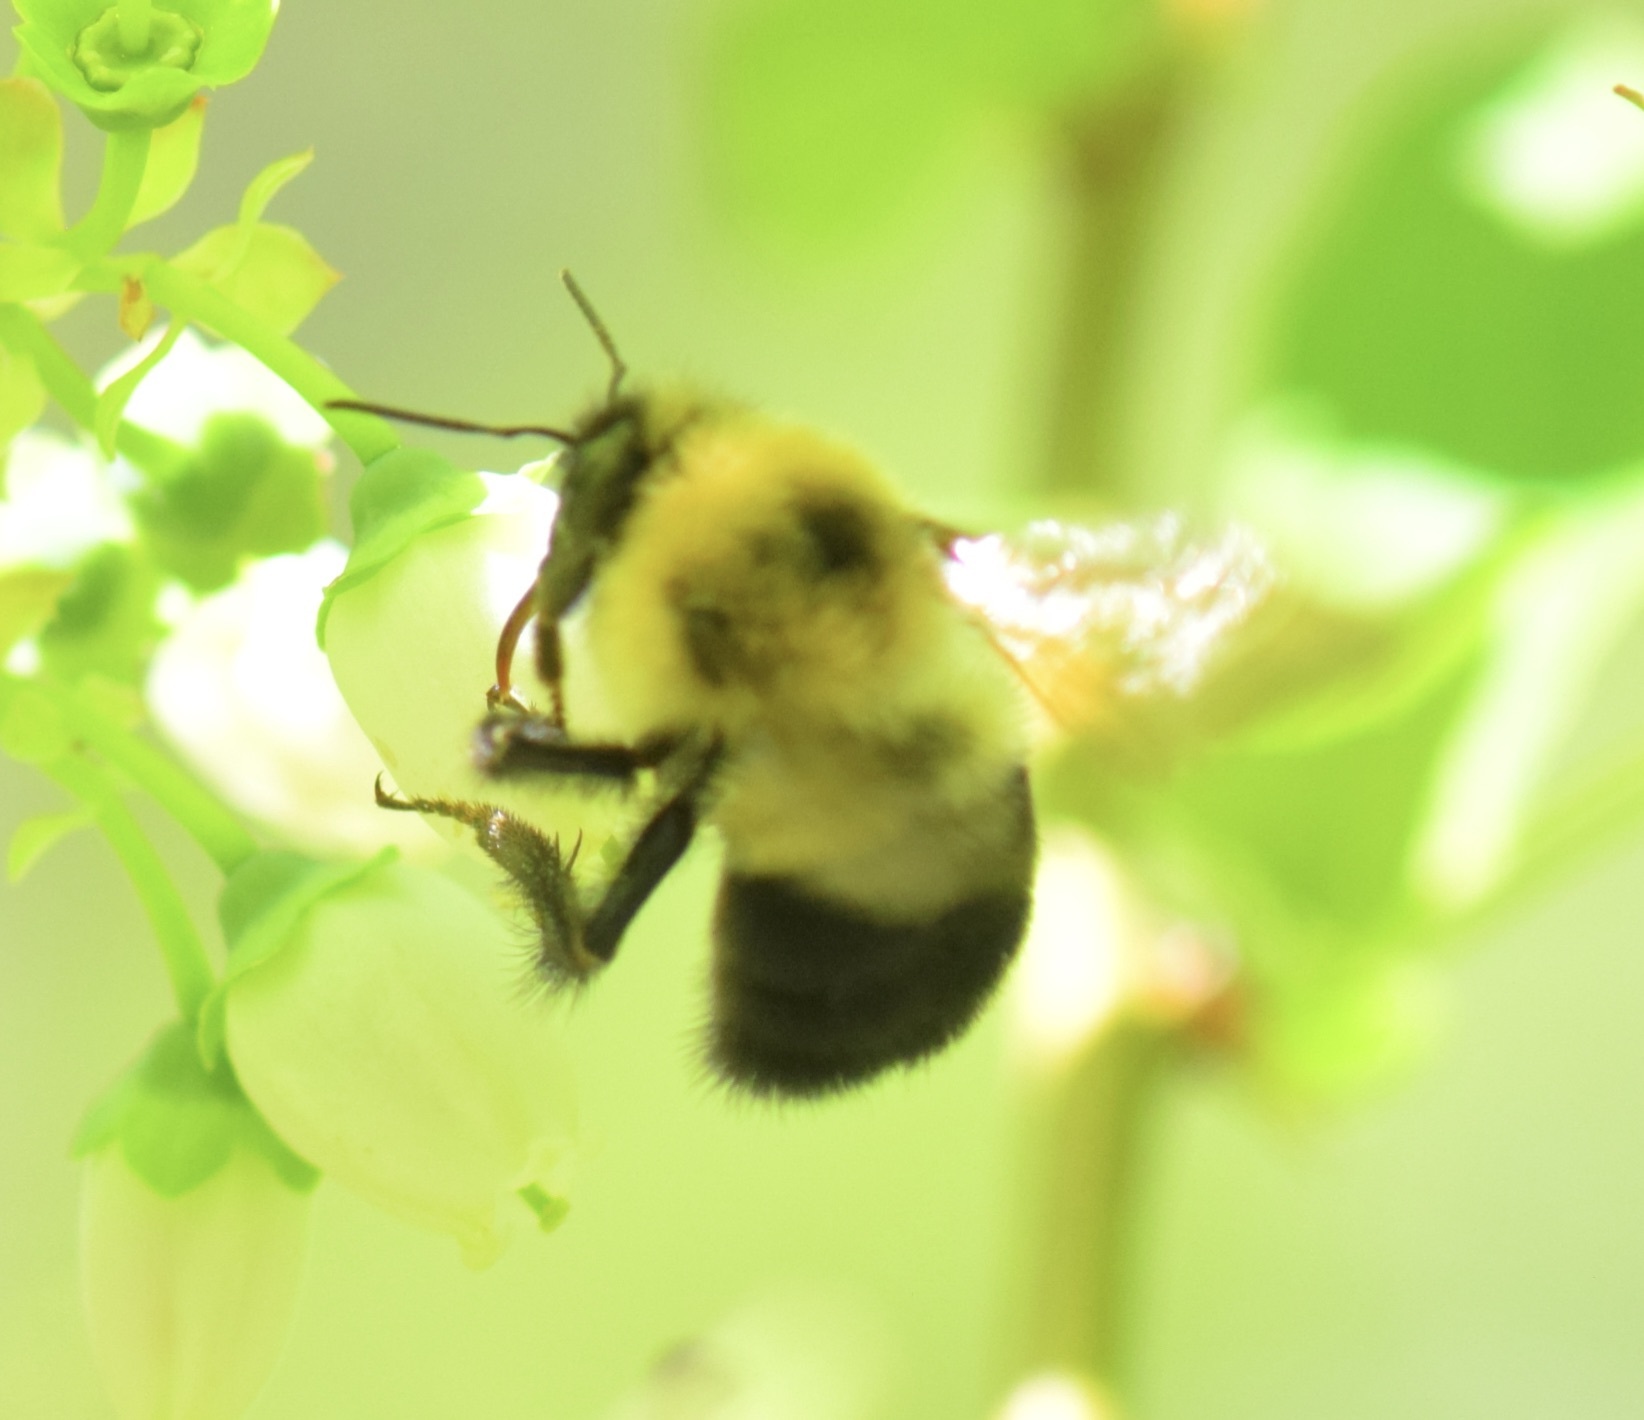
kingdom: Animalia
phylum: Arthropoda
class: Insecta
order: Hymenoptera
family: Apidae
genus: Bombus
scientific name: Bombus bimaculatus
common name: Two-spotted bumble bee
